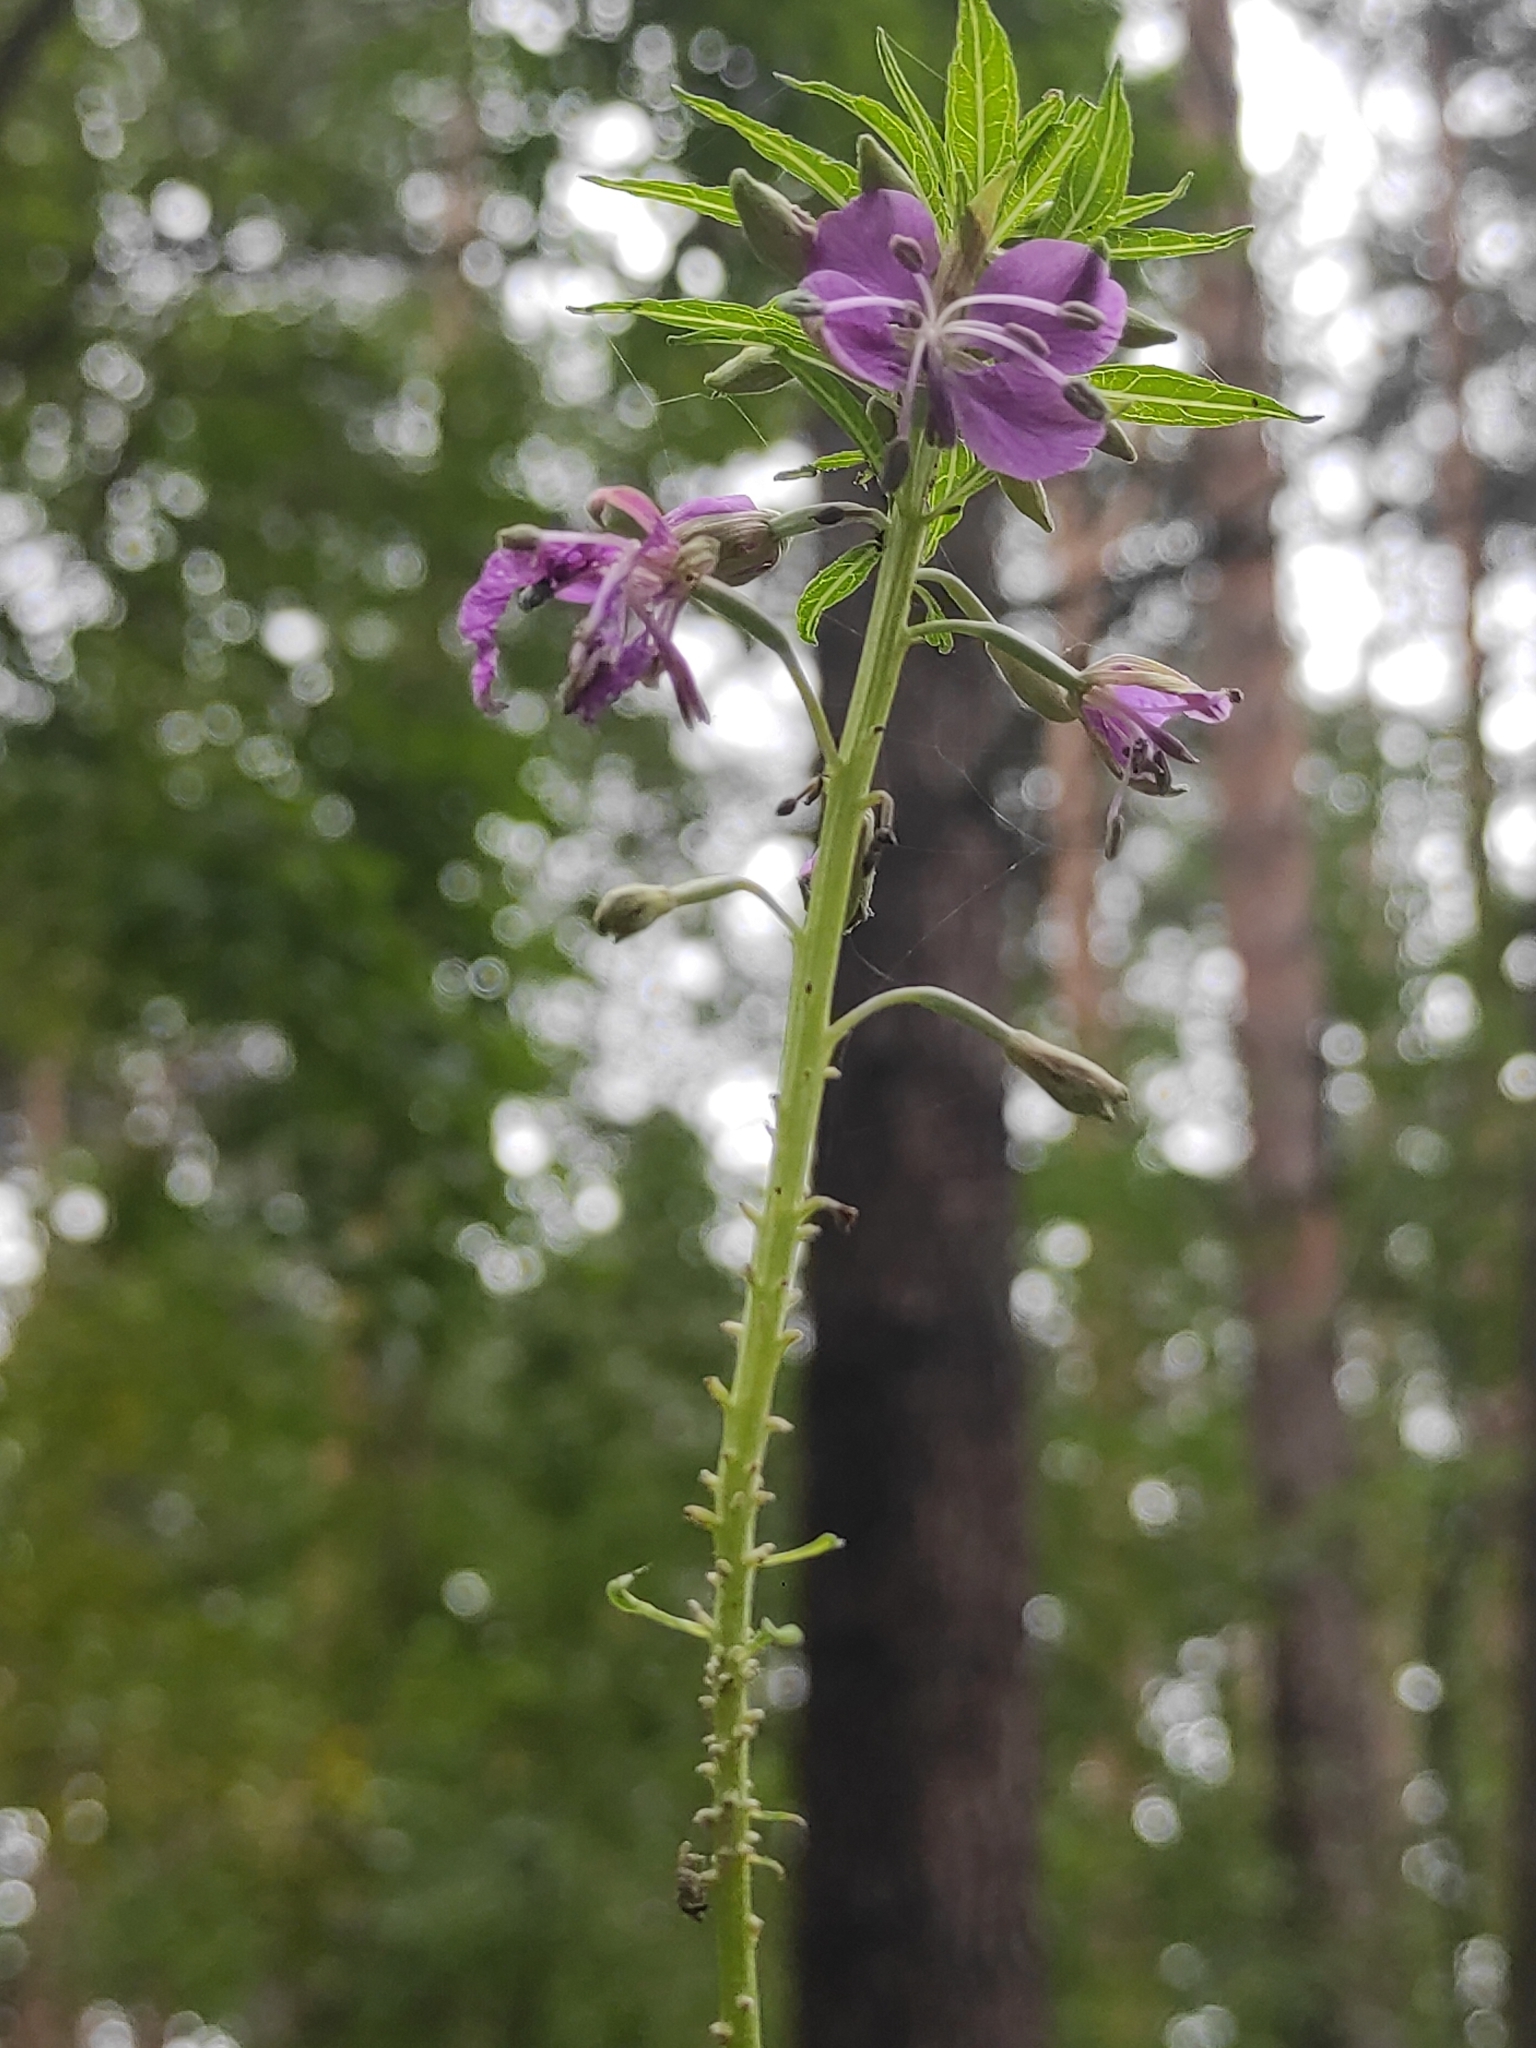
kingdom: Plantae
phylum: Tracheophyta
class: Magnoliopsida
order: Myrtales
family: Onagraceae
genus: Chamaenerion
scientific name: Chamaenerion angustifolium
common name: Fireweed
